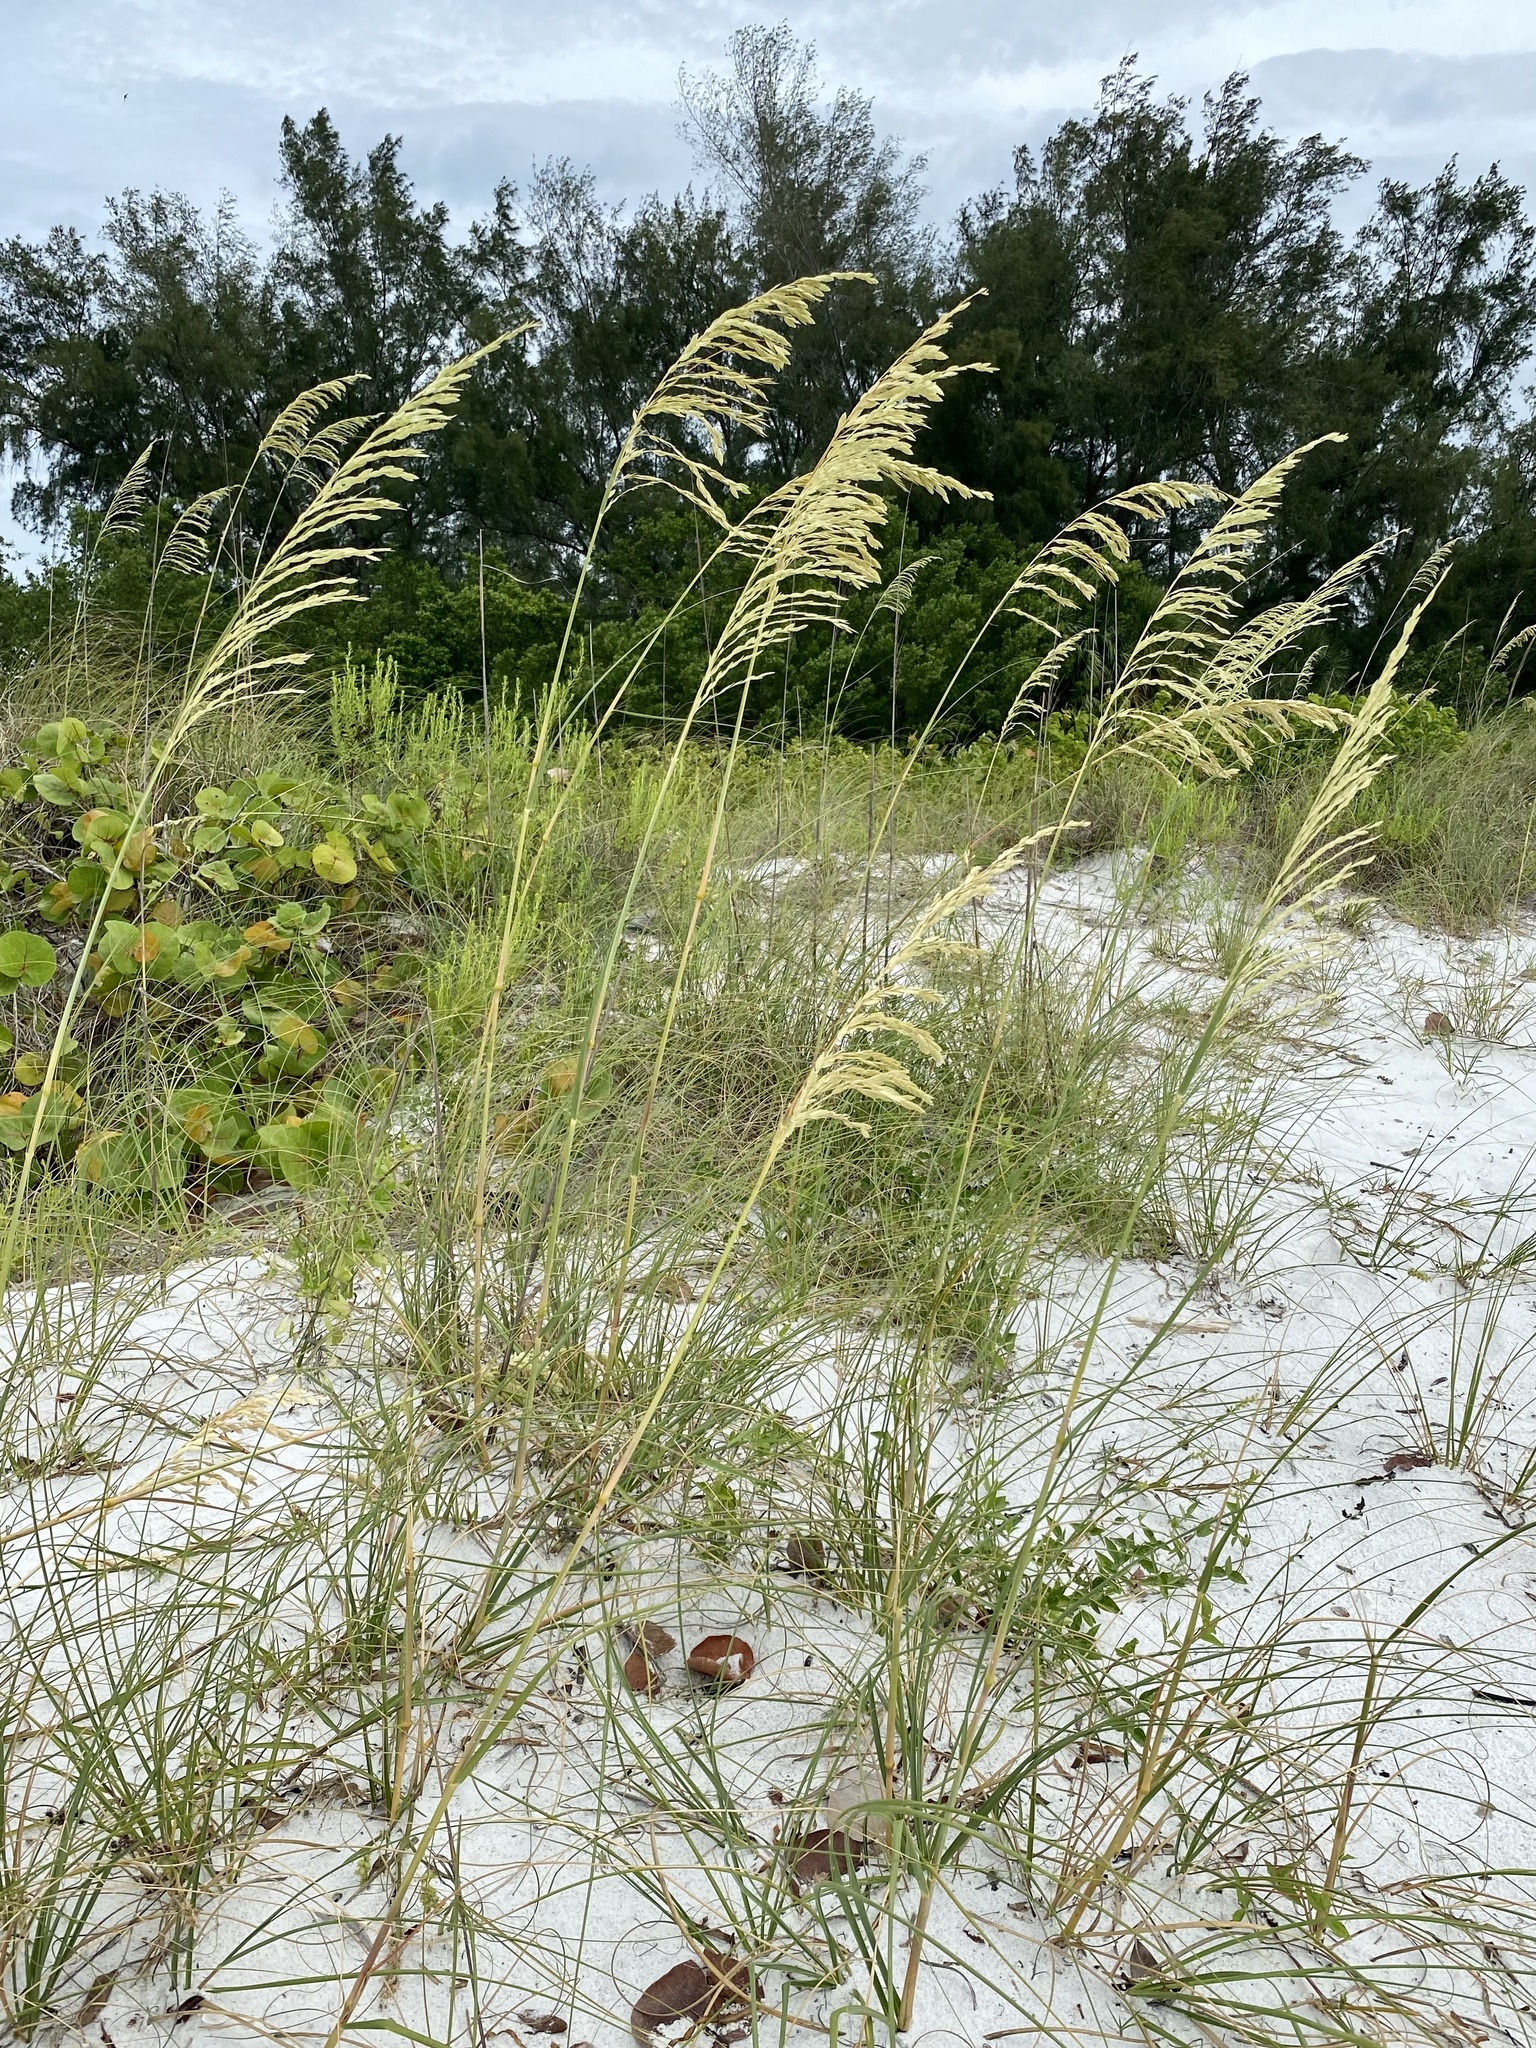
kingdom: Plantae
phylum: Tracheophyta
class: Liliopsida
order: Poales
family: Poaceae
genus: Uniola
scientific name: Uniola paniculata
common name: Seaside-oats
